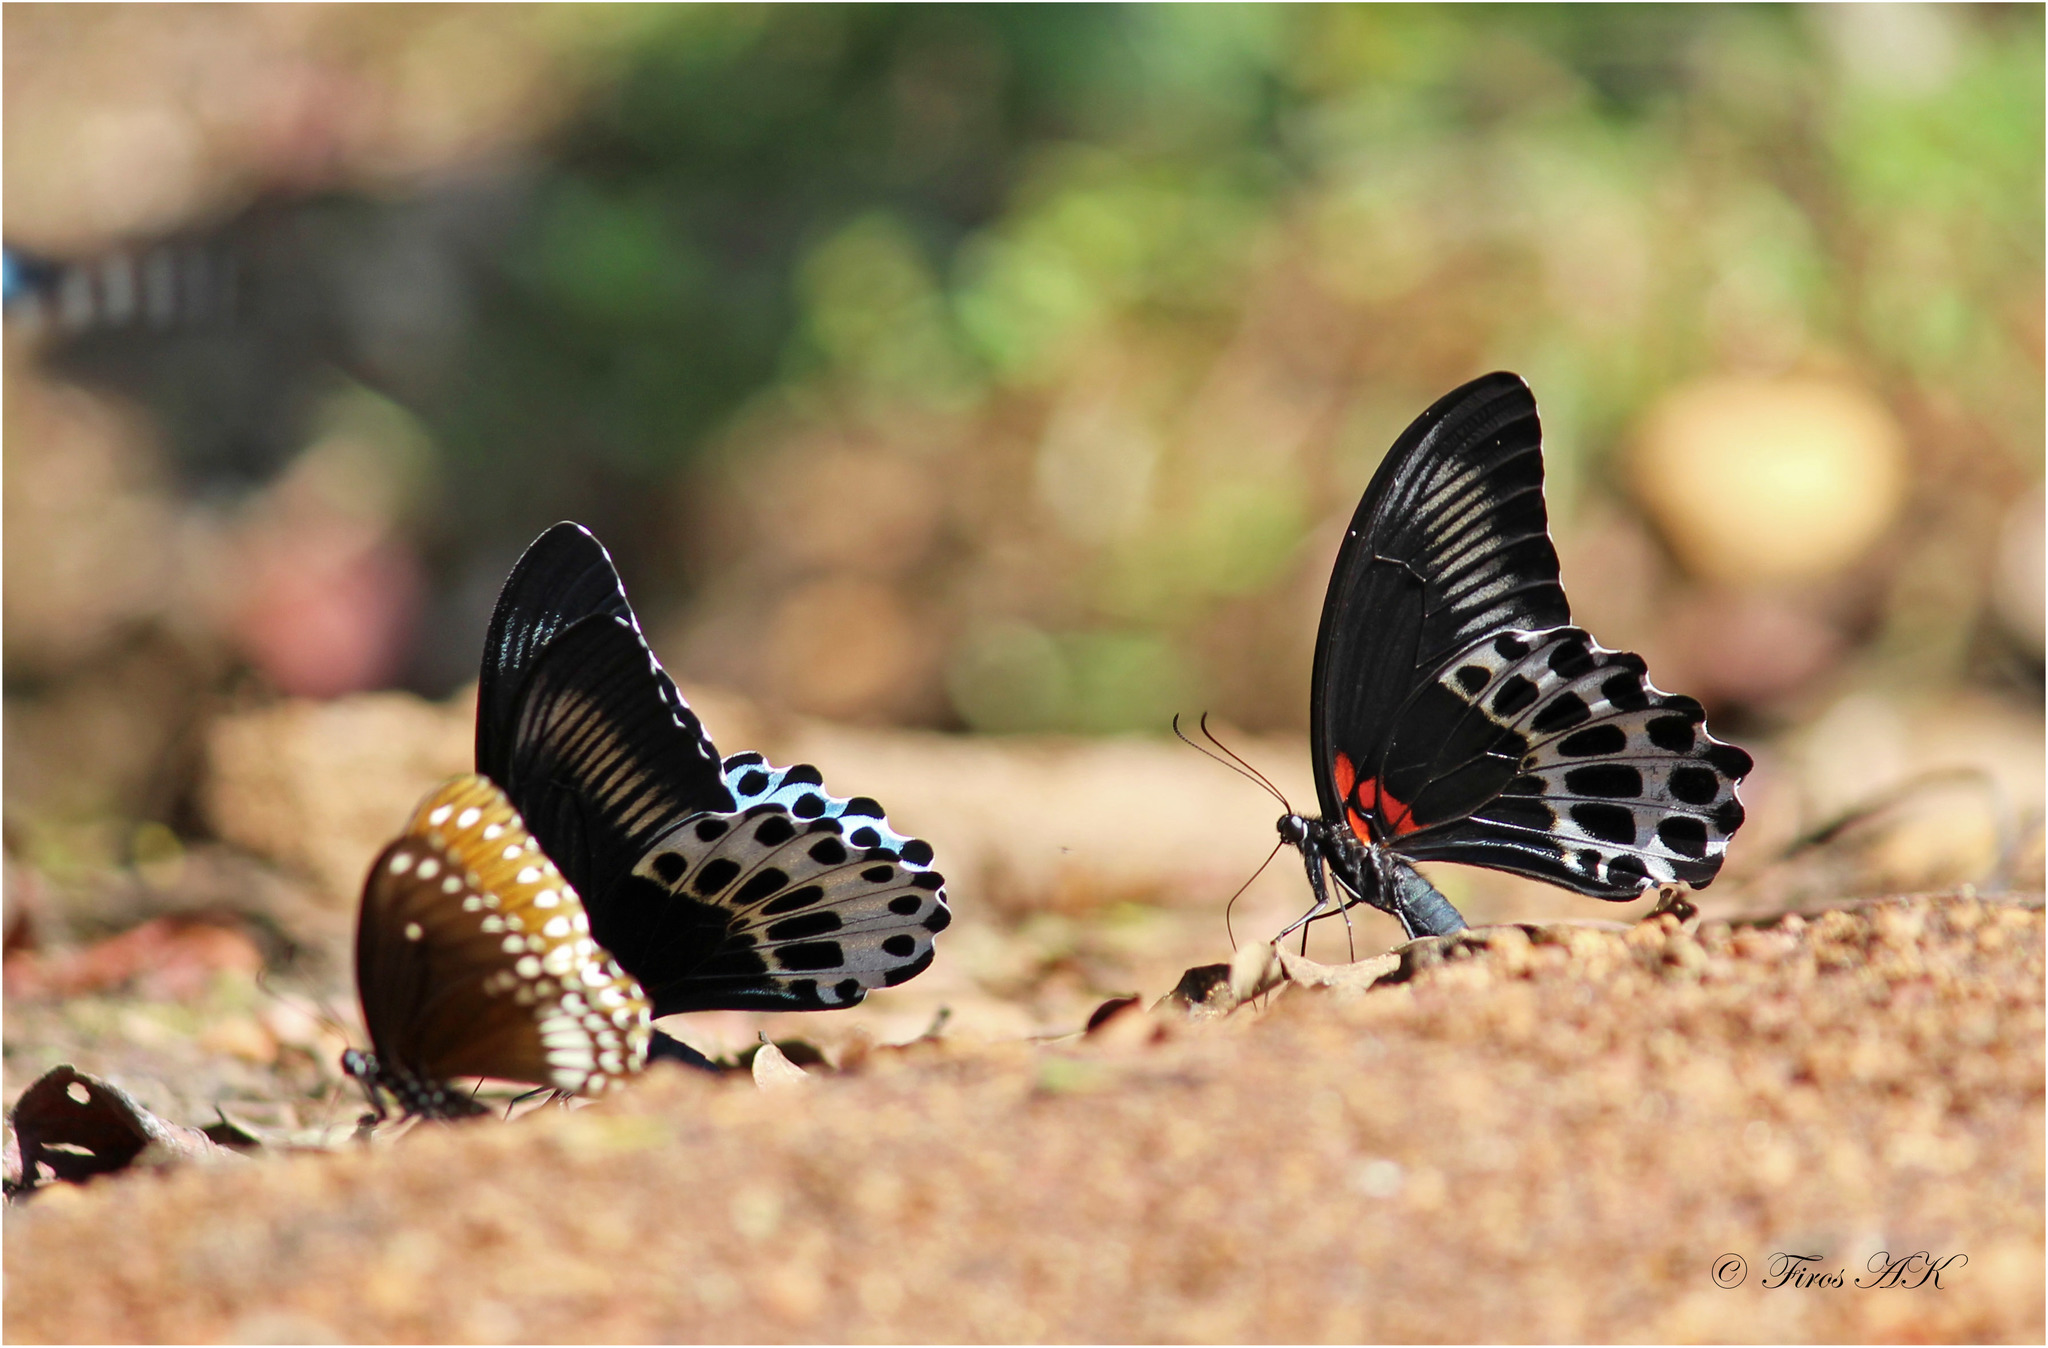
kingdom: Animalia
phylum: Arthropoda
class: Insecta
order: Lepidoptera
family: Papilionidae
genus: Papilio
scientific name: Papilio memnon
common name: Great mormon
